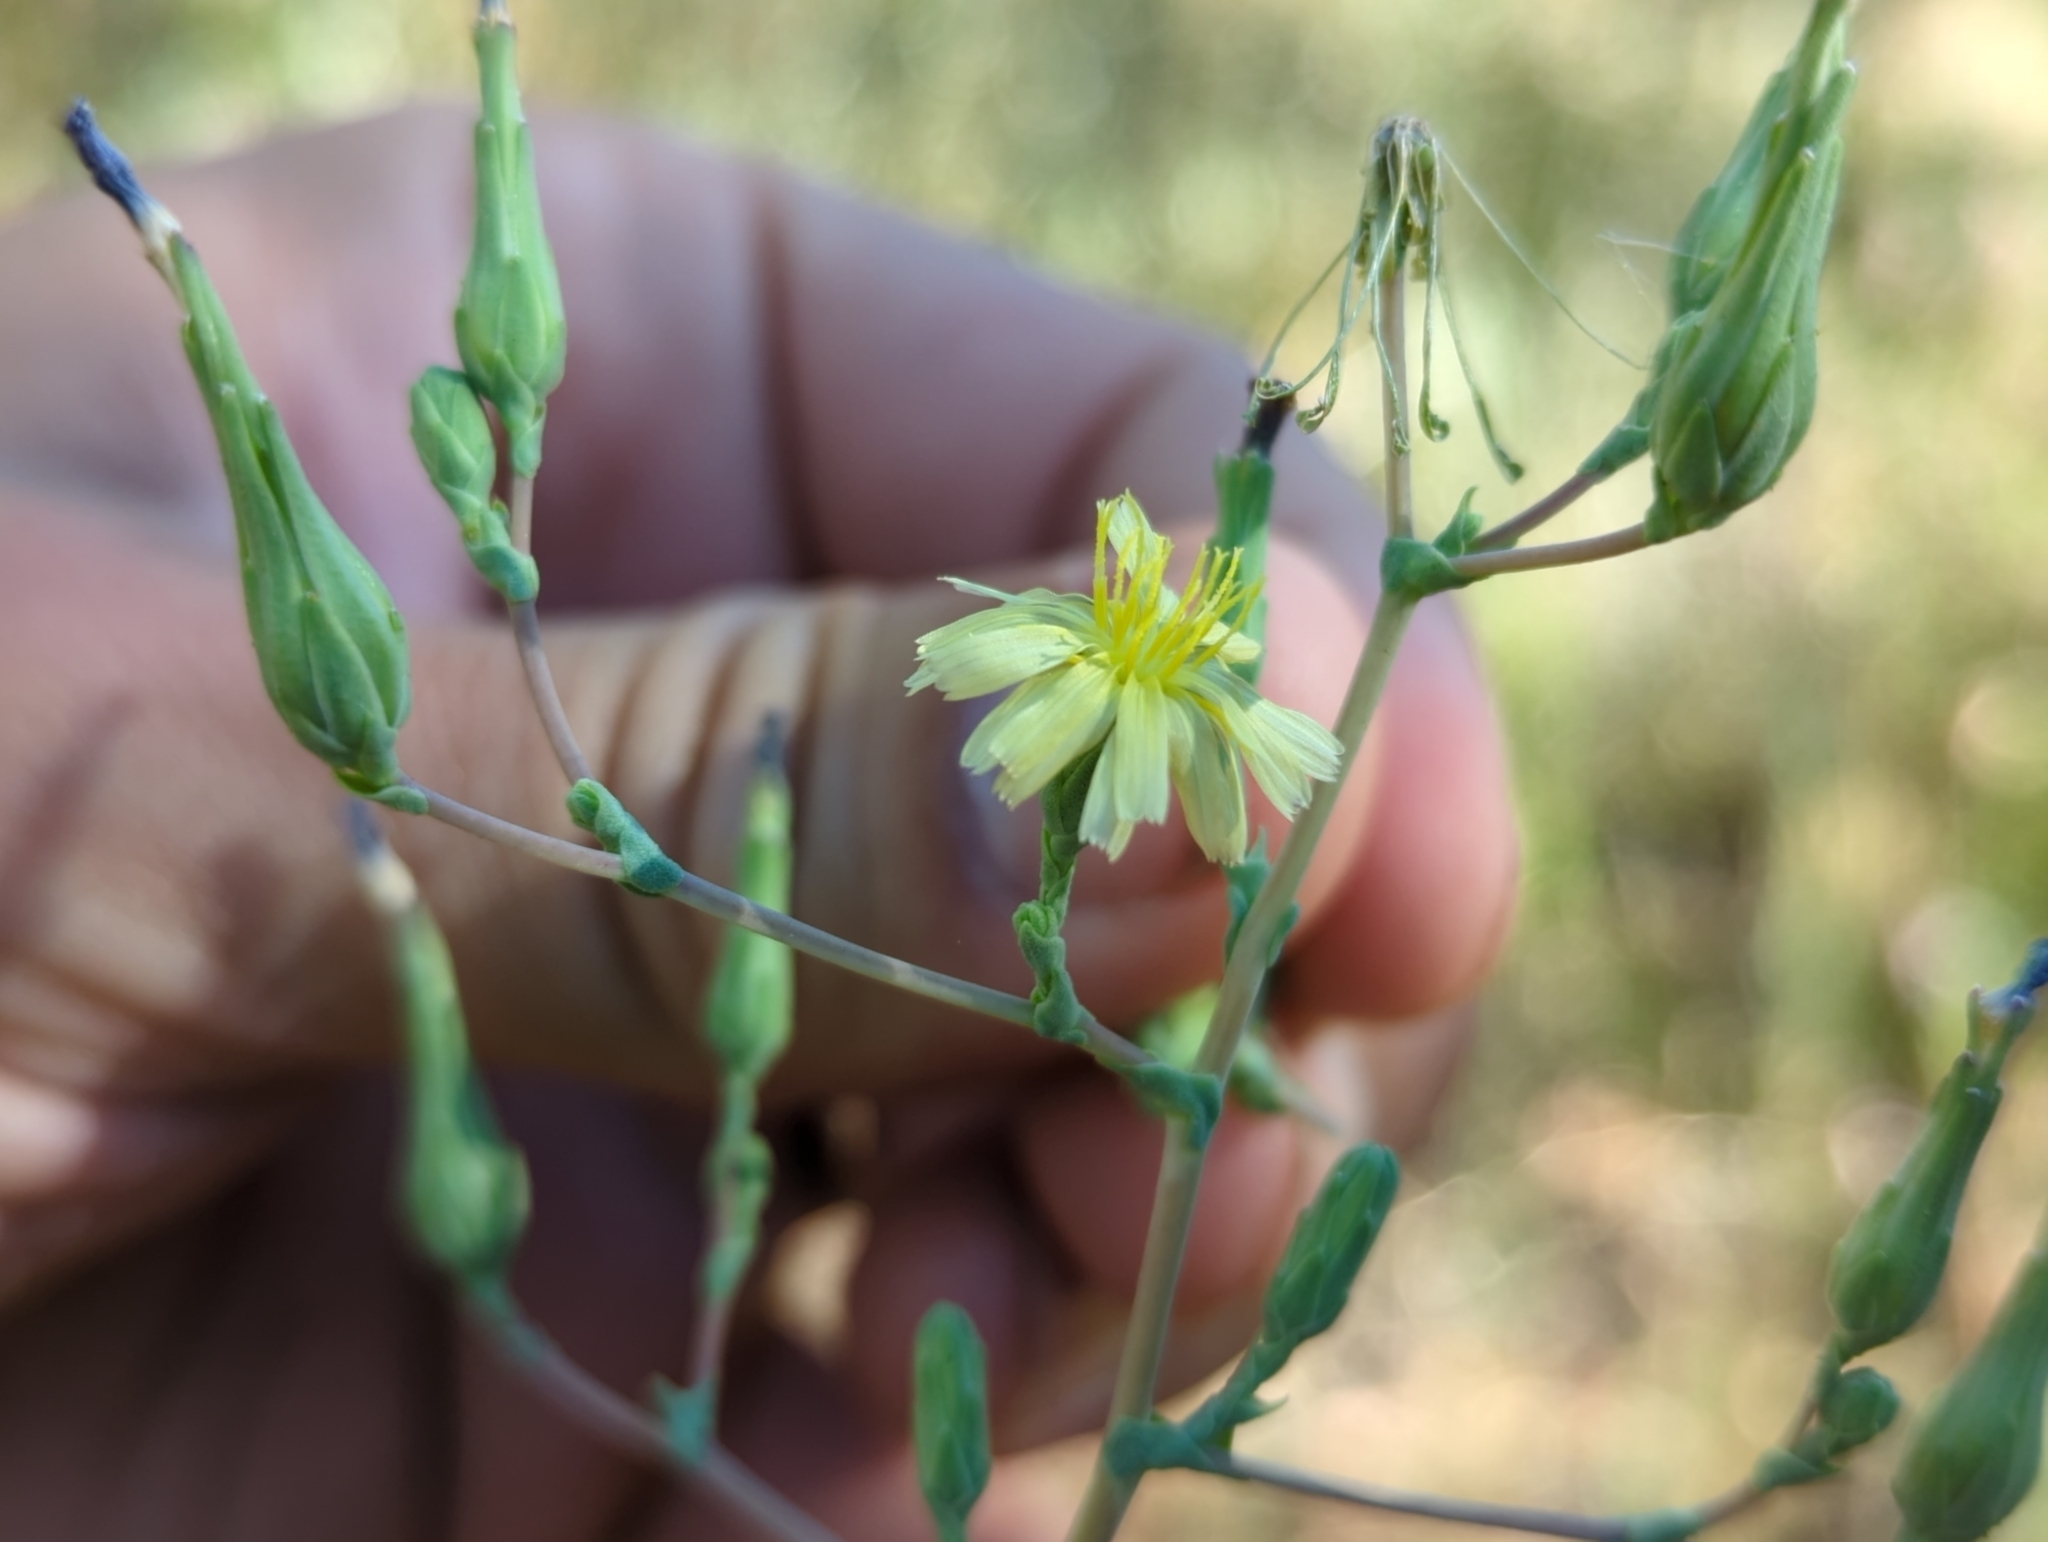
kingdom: Plantae
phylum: Tracheophyta
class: Magnoliopsida
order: Asterales
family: Asteraceae
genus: Lactuca
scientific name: Lactuca serriola
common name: Prickly lettuce
